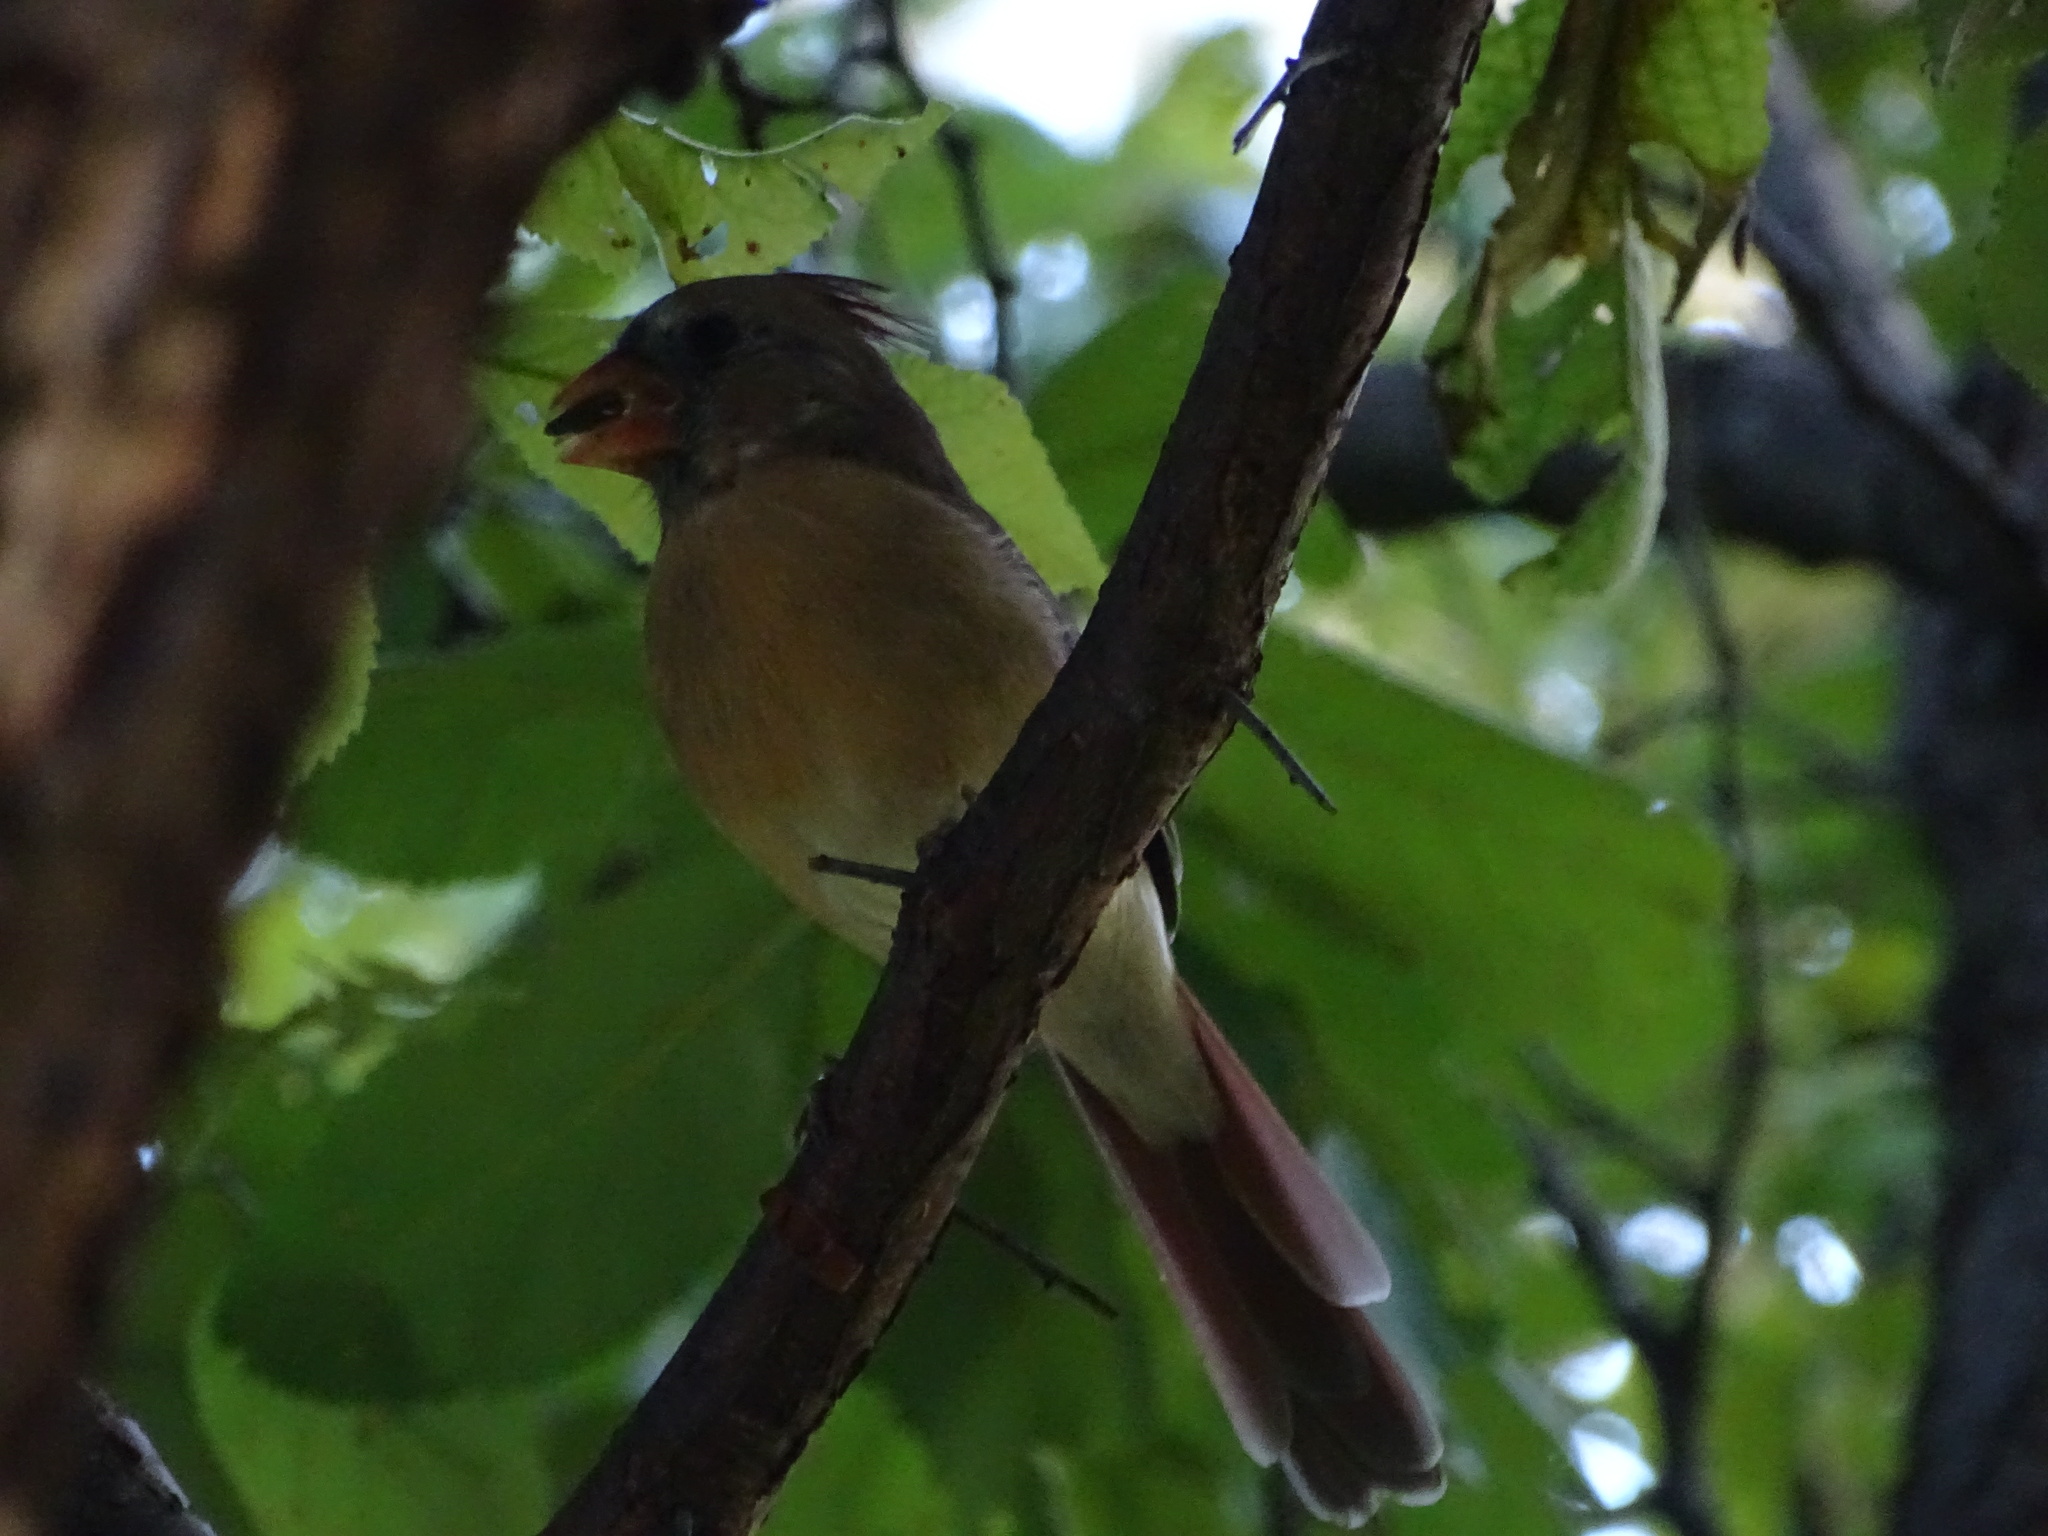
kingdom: Animalia
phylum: Chordata
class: Aves
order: Passeriformes
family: Cardinalidae
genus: Cardinalis
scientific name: Cardinalis cardinalis
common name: Northern cardinal
